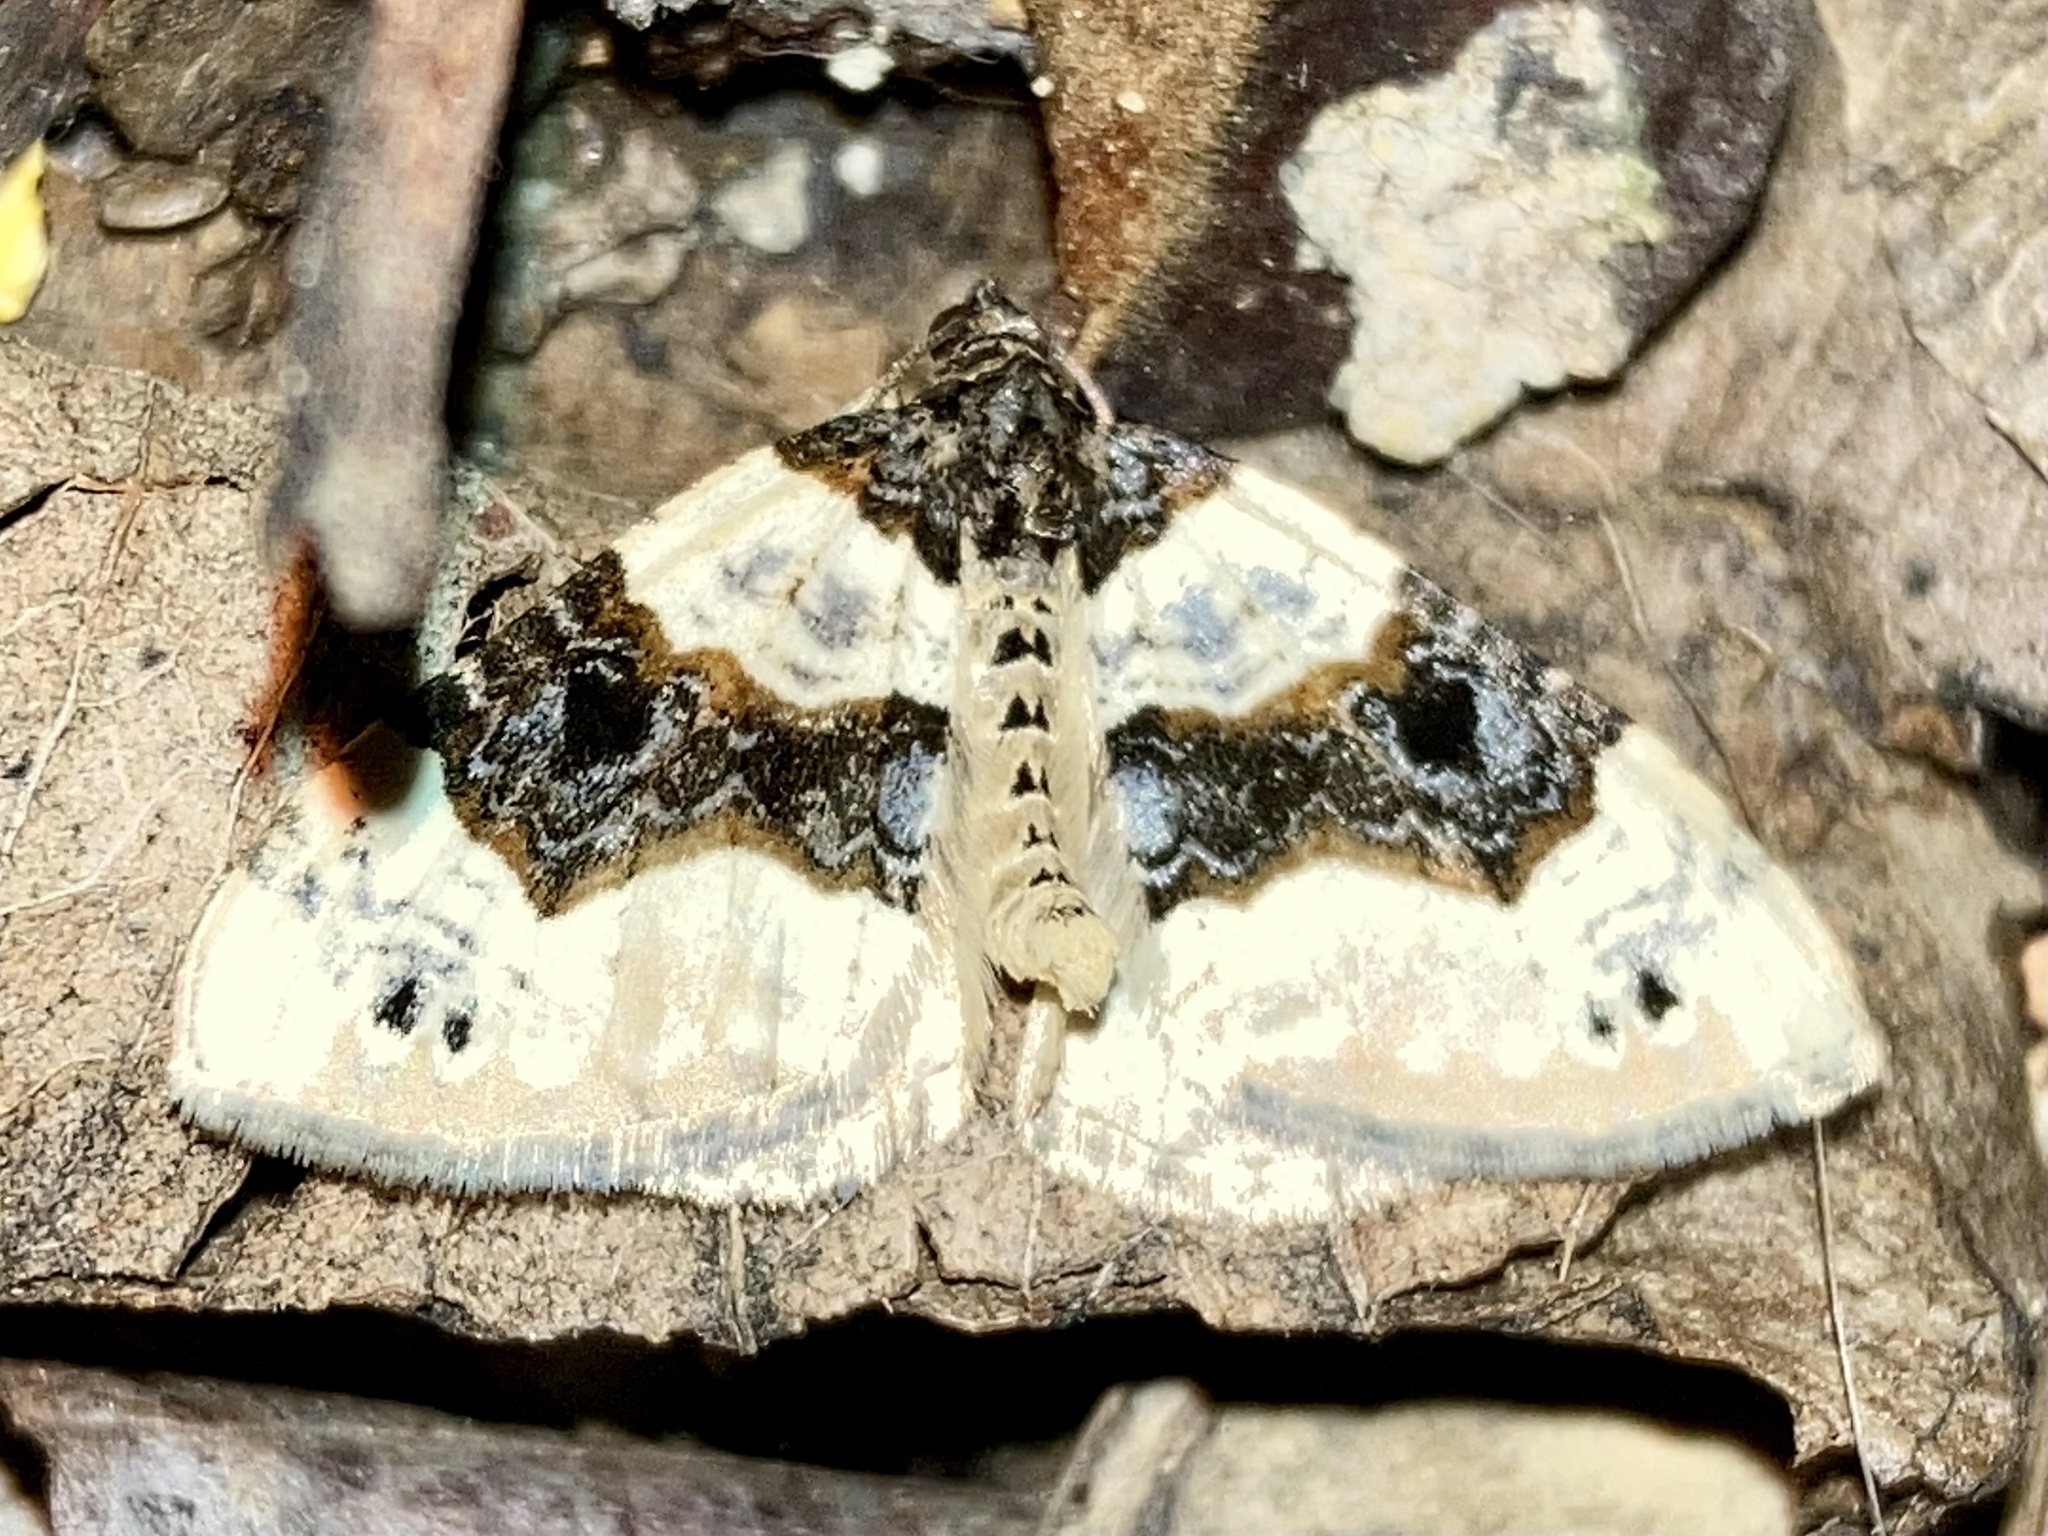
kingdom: Animalia
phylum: Arthropoda
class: Insecta
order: Lepidoptera
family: Geometridae
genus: Cosmorhoe
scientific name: Cosmorhoe ocellata
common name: Purple bar
